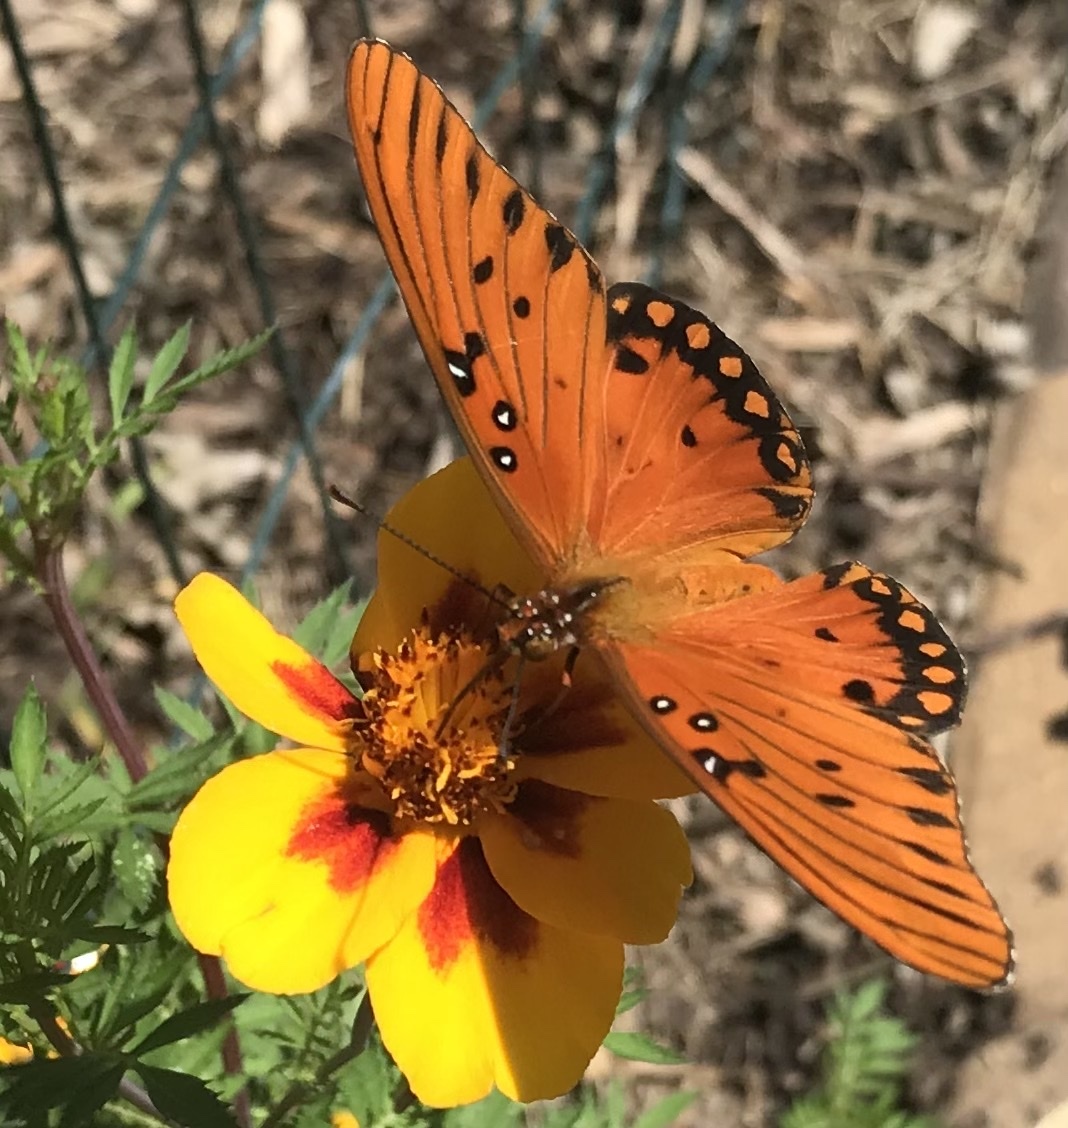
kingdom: Animalia
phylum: Arthropoda
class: Insecta
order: Lepidoptera
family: Nymphalidae
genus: Dione
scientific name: Dione vanillae
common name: Gulf fritillary
